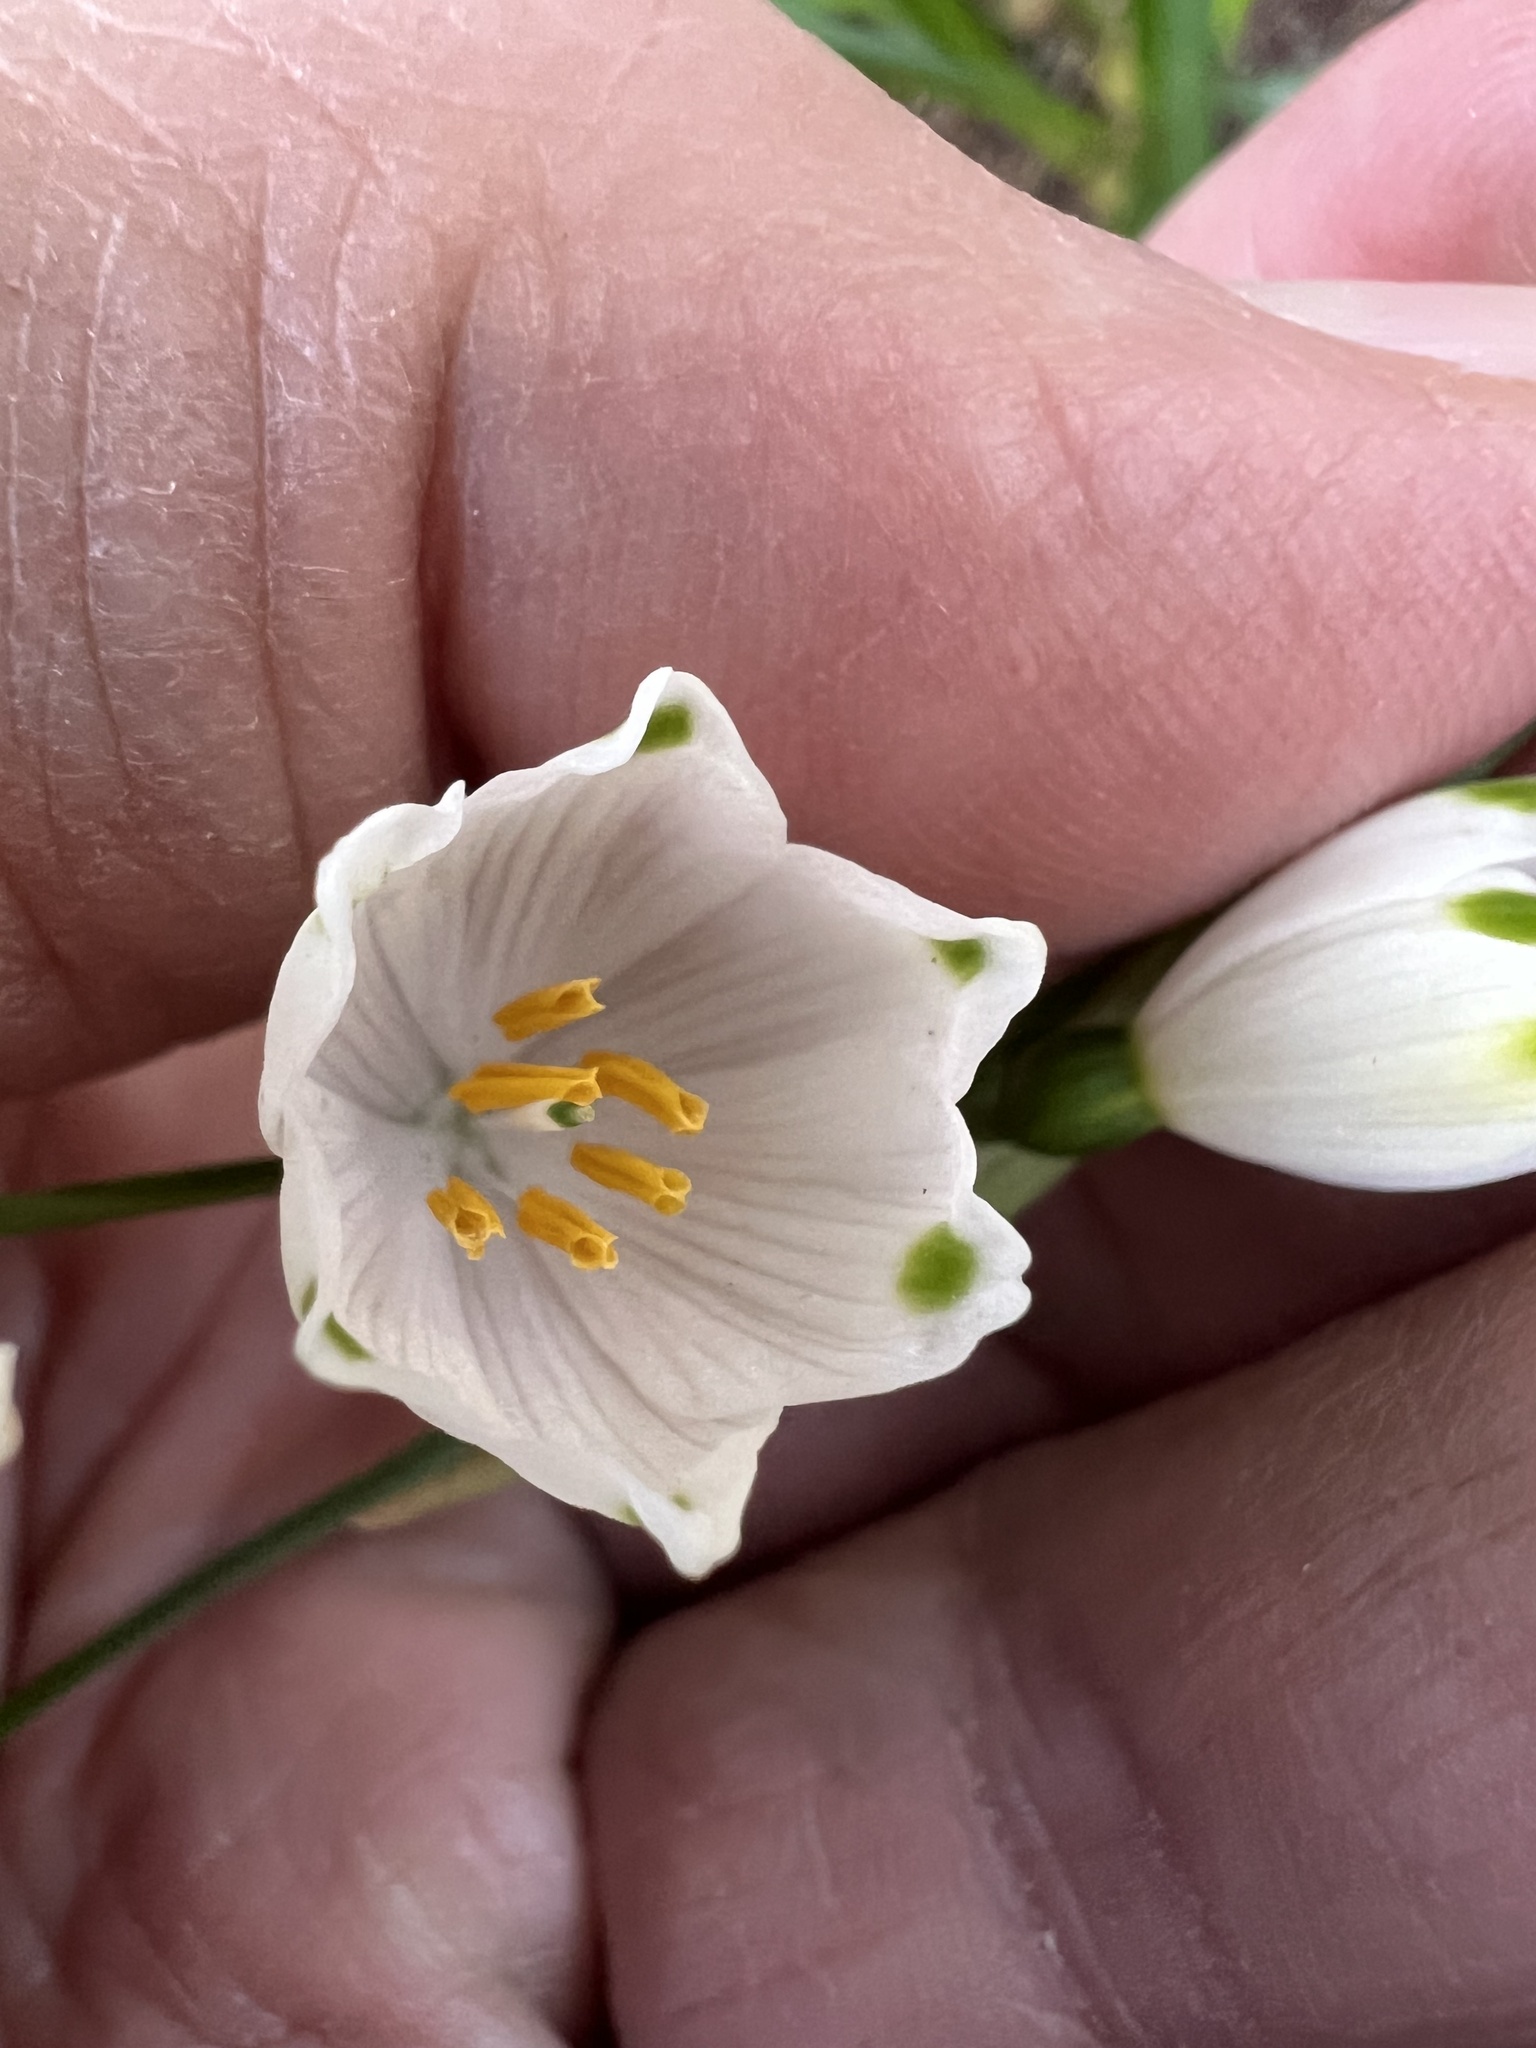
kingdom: Plantae
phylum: Tracheophyta
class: Liliopsida
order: Asparagales
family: Amaryllidaceae
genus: Leucojum
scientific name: Leucojum aestivum
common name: Summer snowflake
